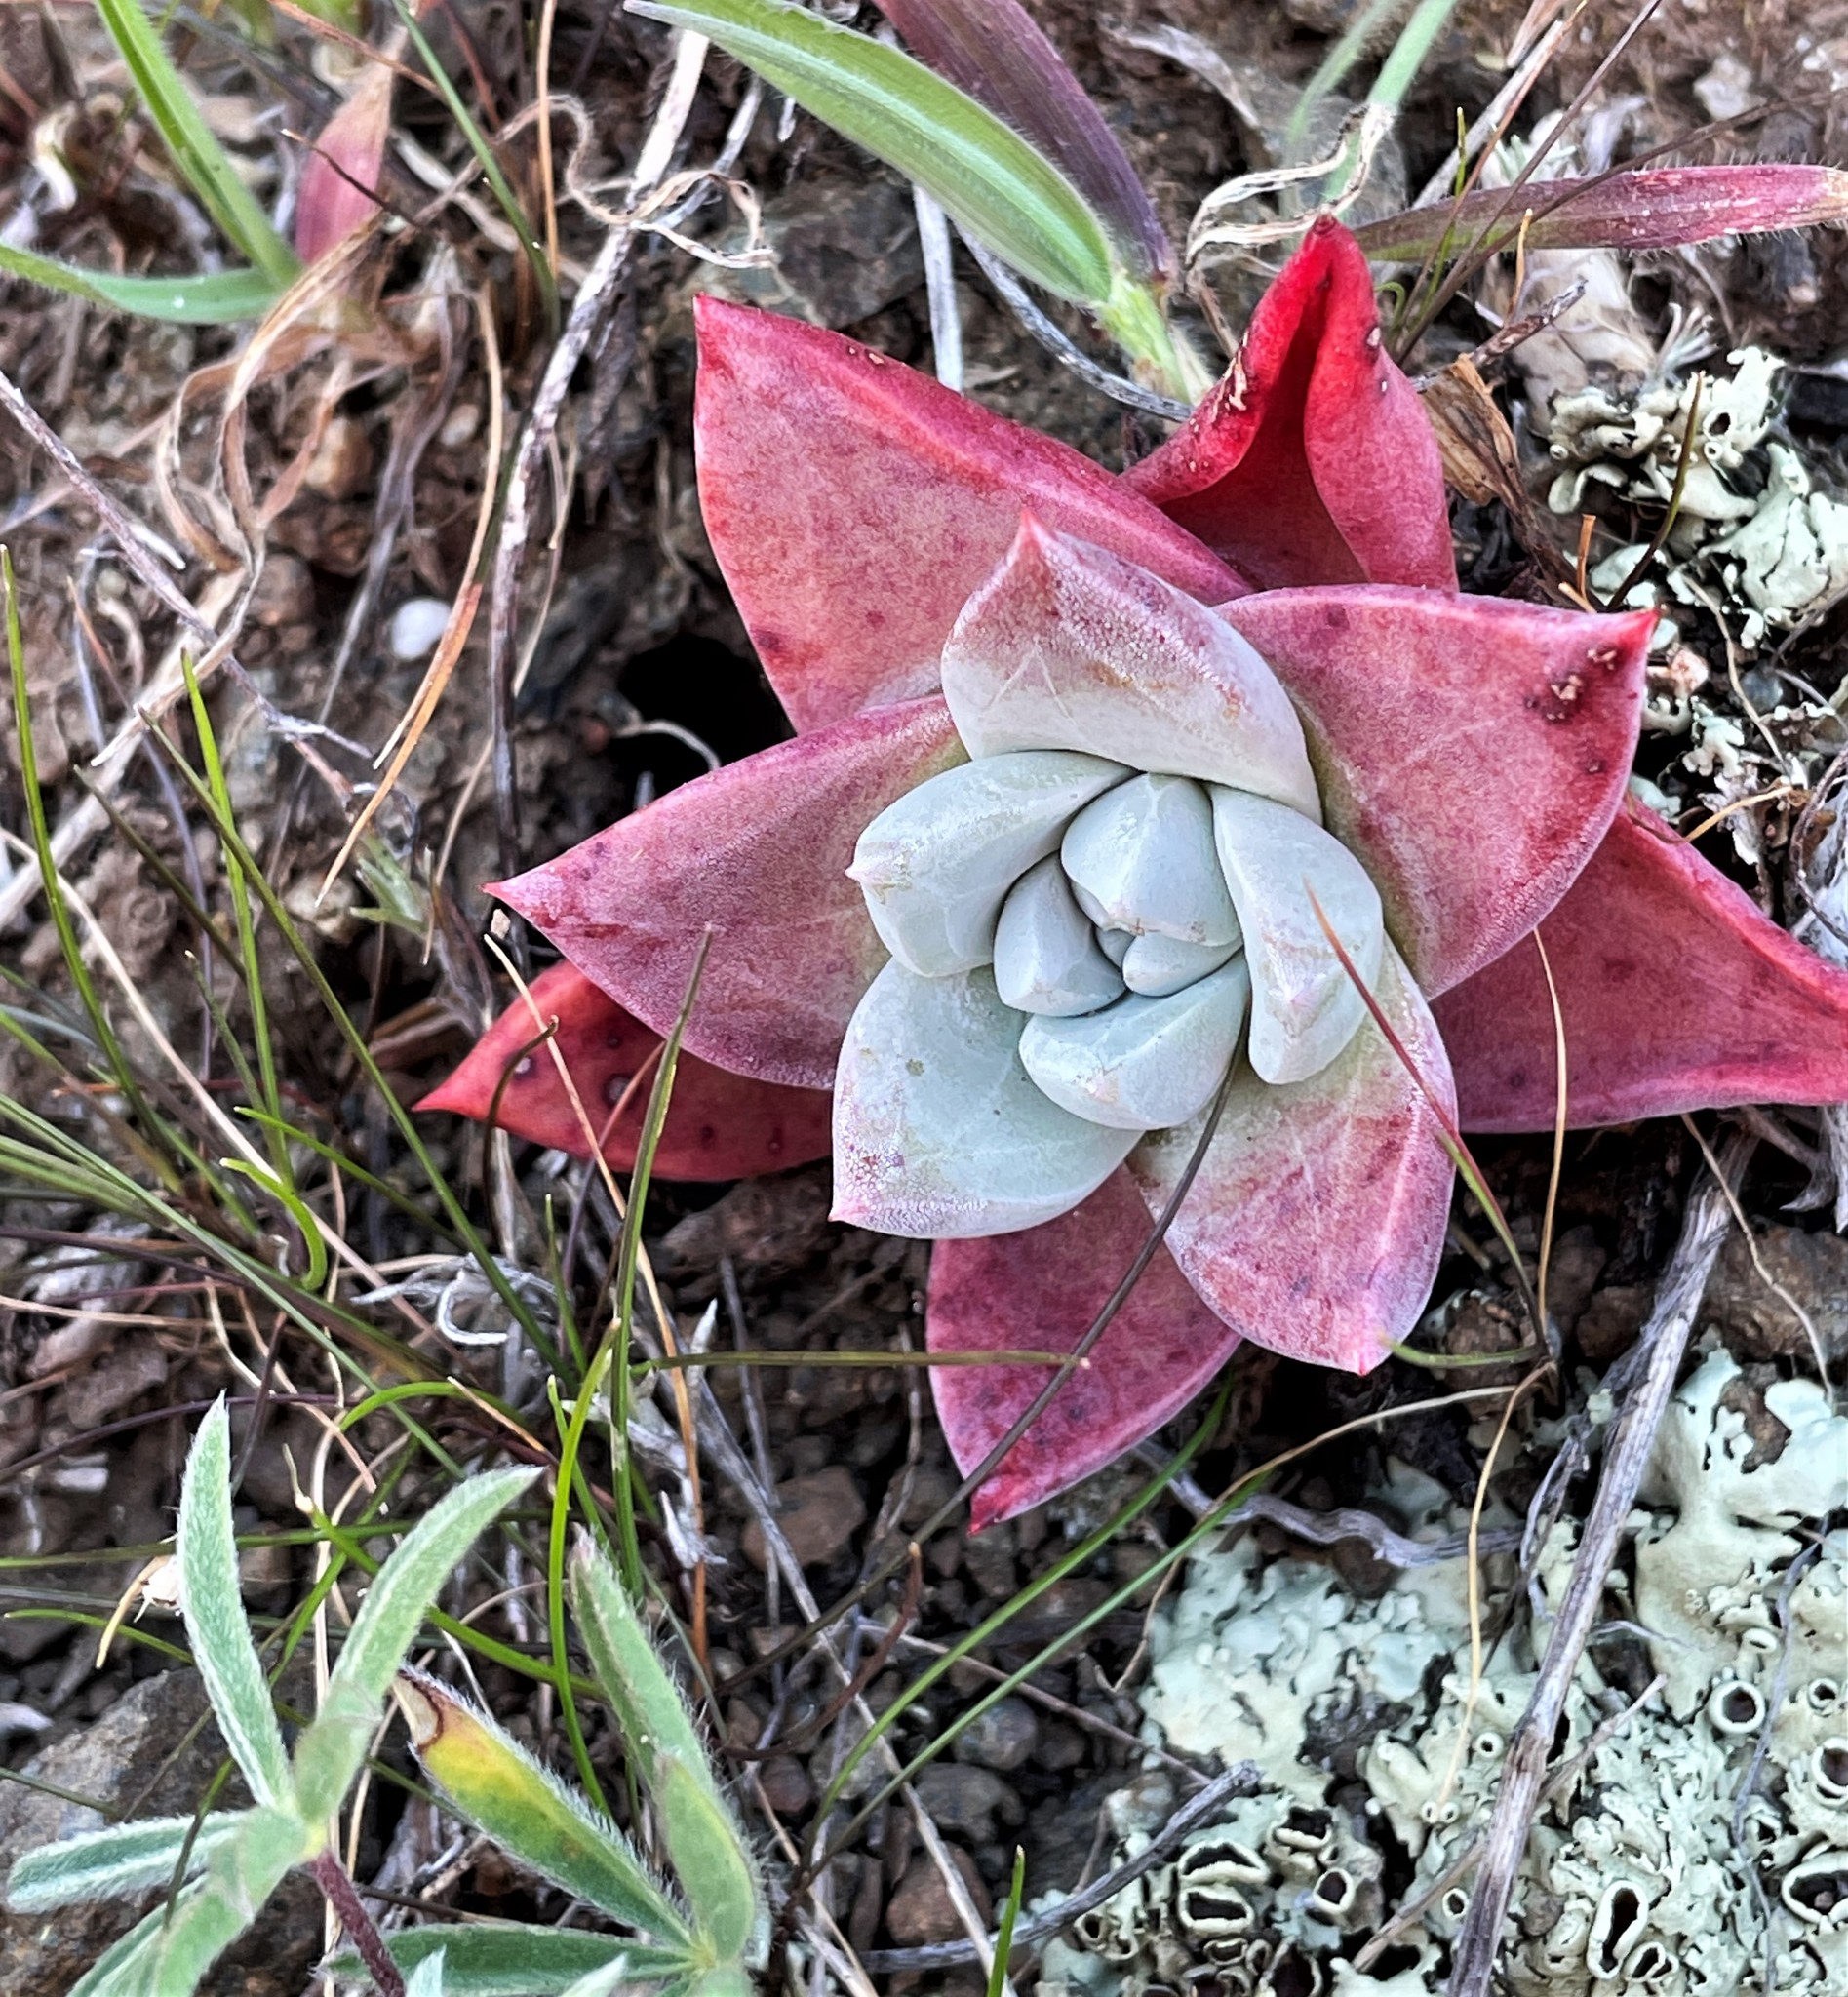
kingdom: Plantae
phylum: Tracheophyta
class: Magnoliopsida
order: Saxifragales
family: Crassulaceae
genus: Dudleya
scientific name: Dudleya farinosa
